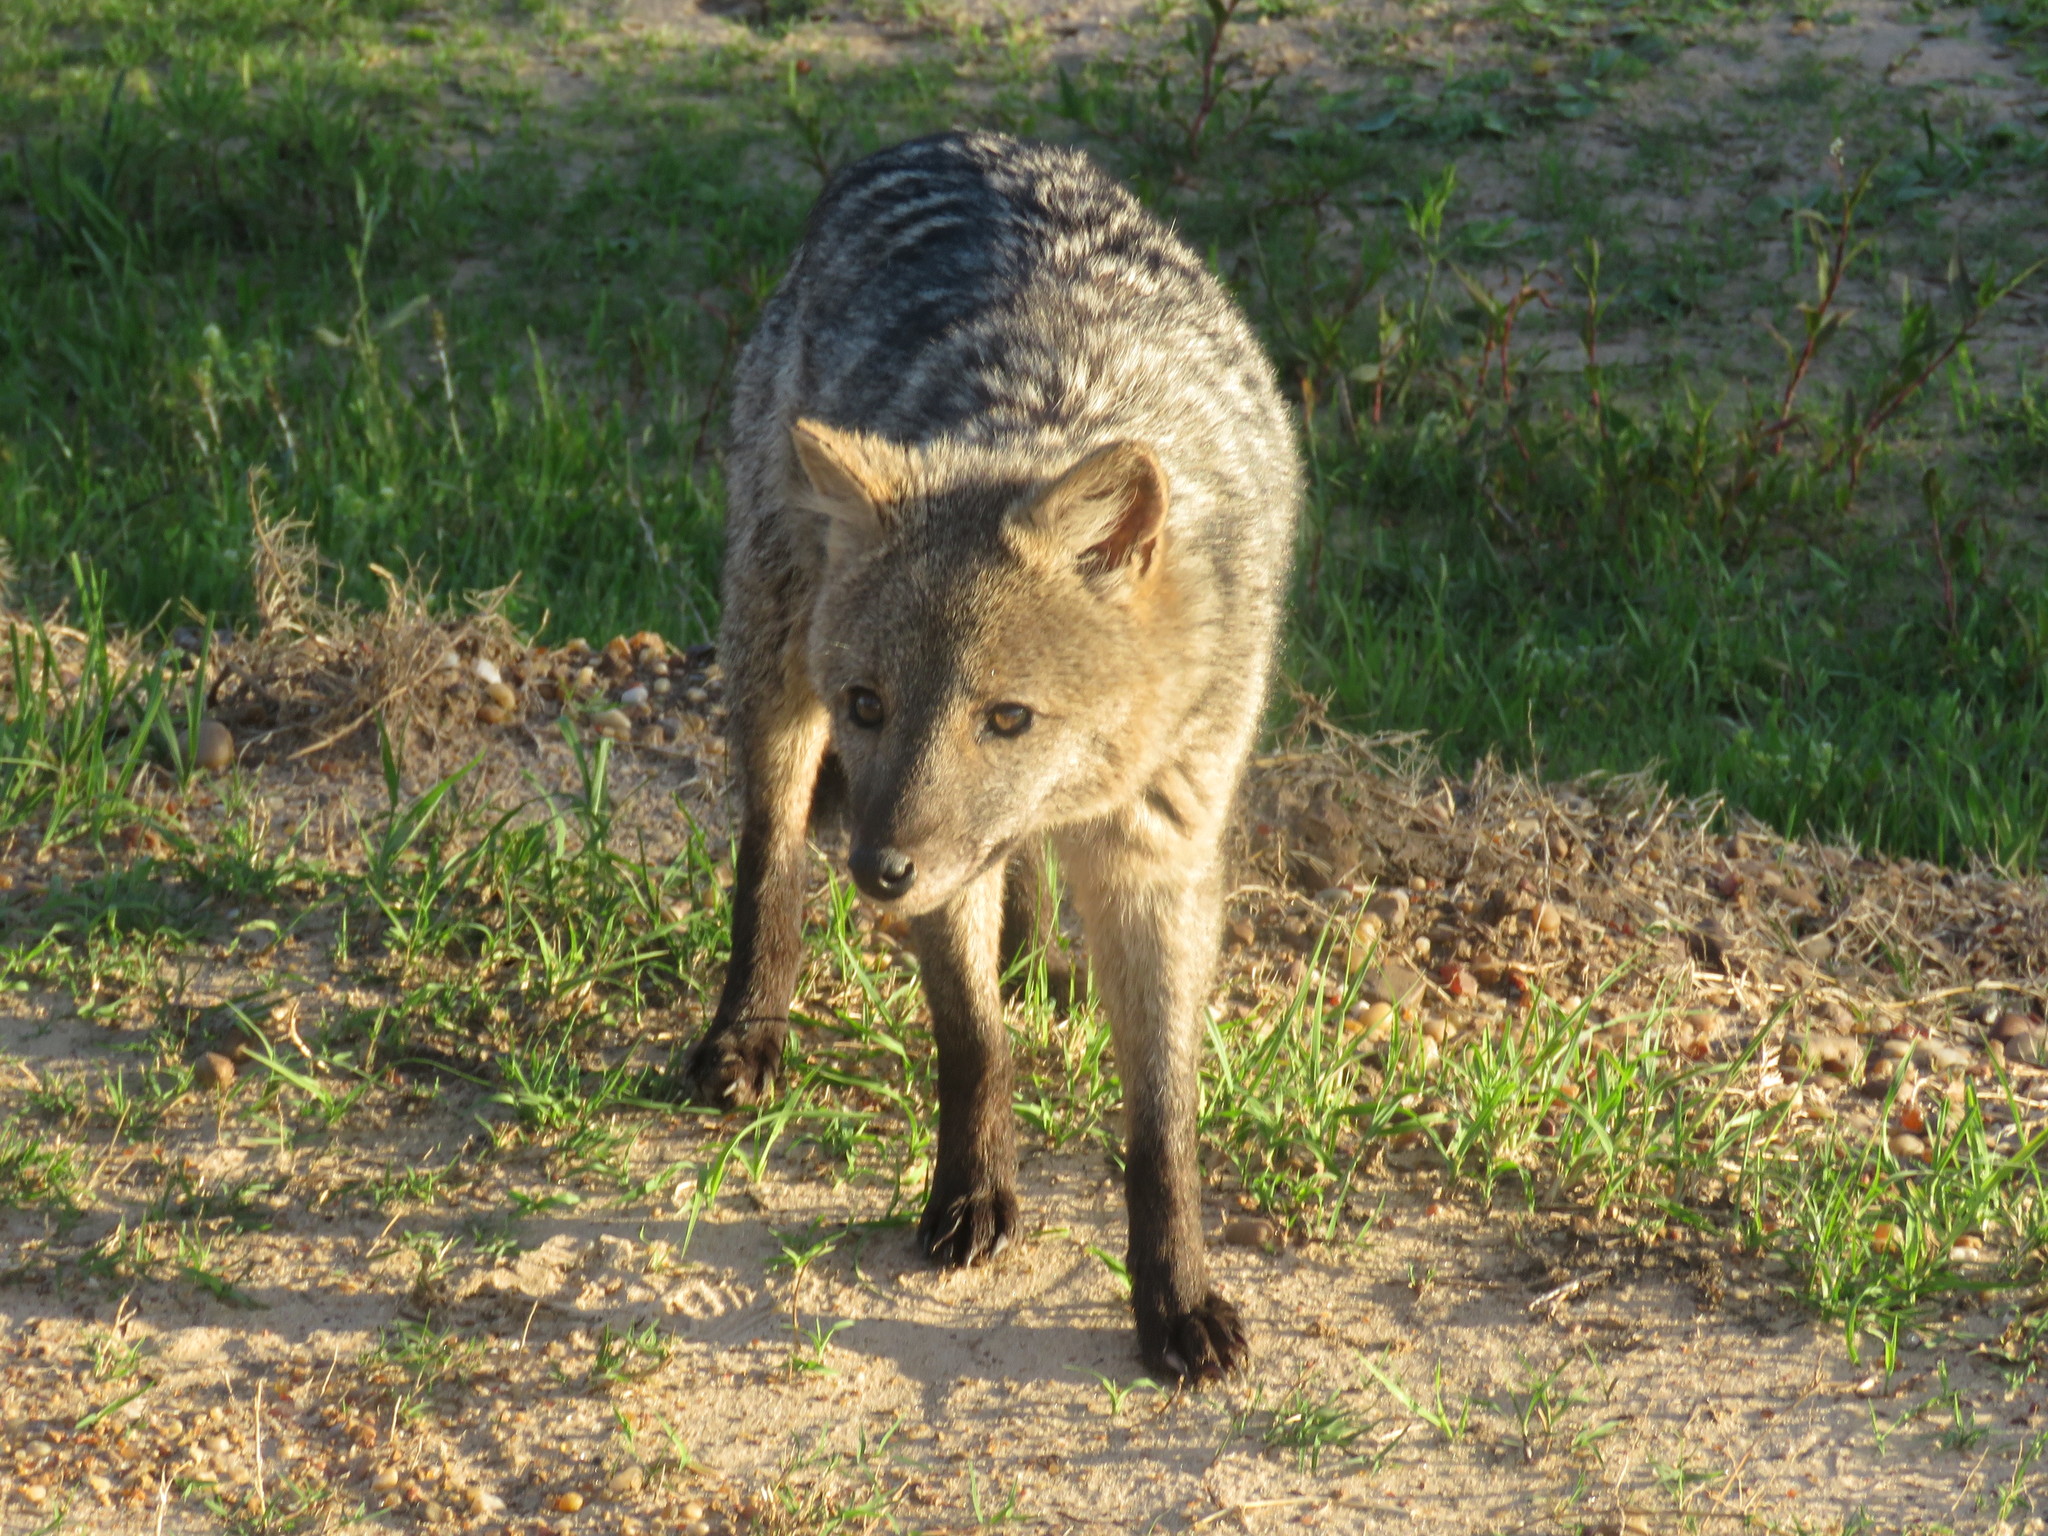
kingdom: Animalia
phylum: Chordata
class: Mammalia
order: Carnivora
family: Canidae
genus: Cerdocyon
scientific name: Cerdocyon thous
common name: Crab-eating fox
